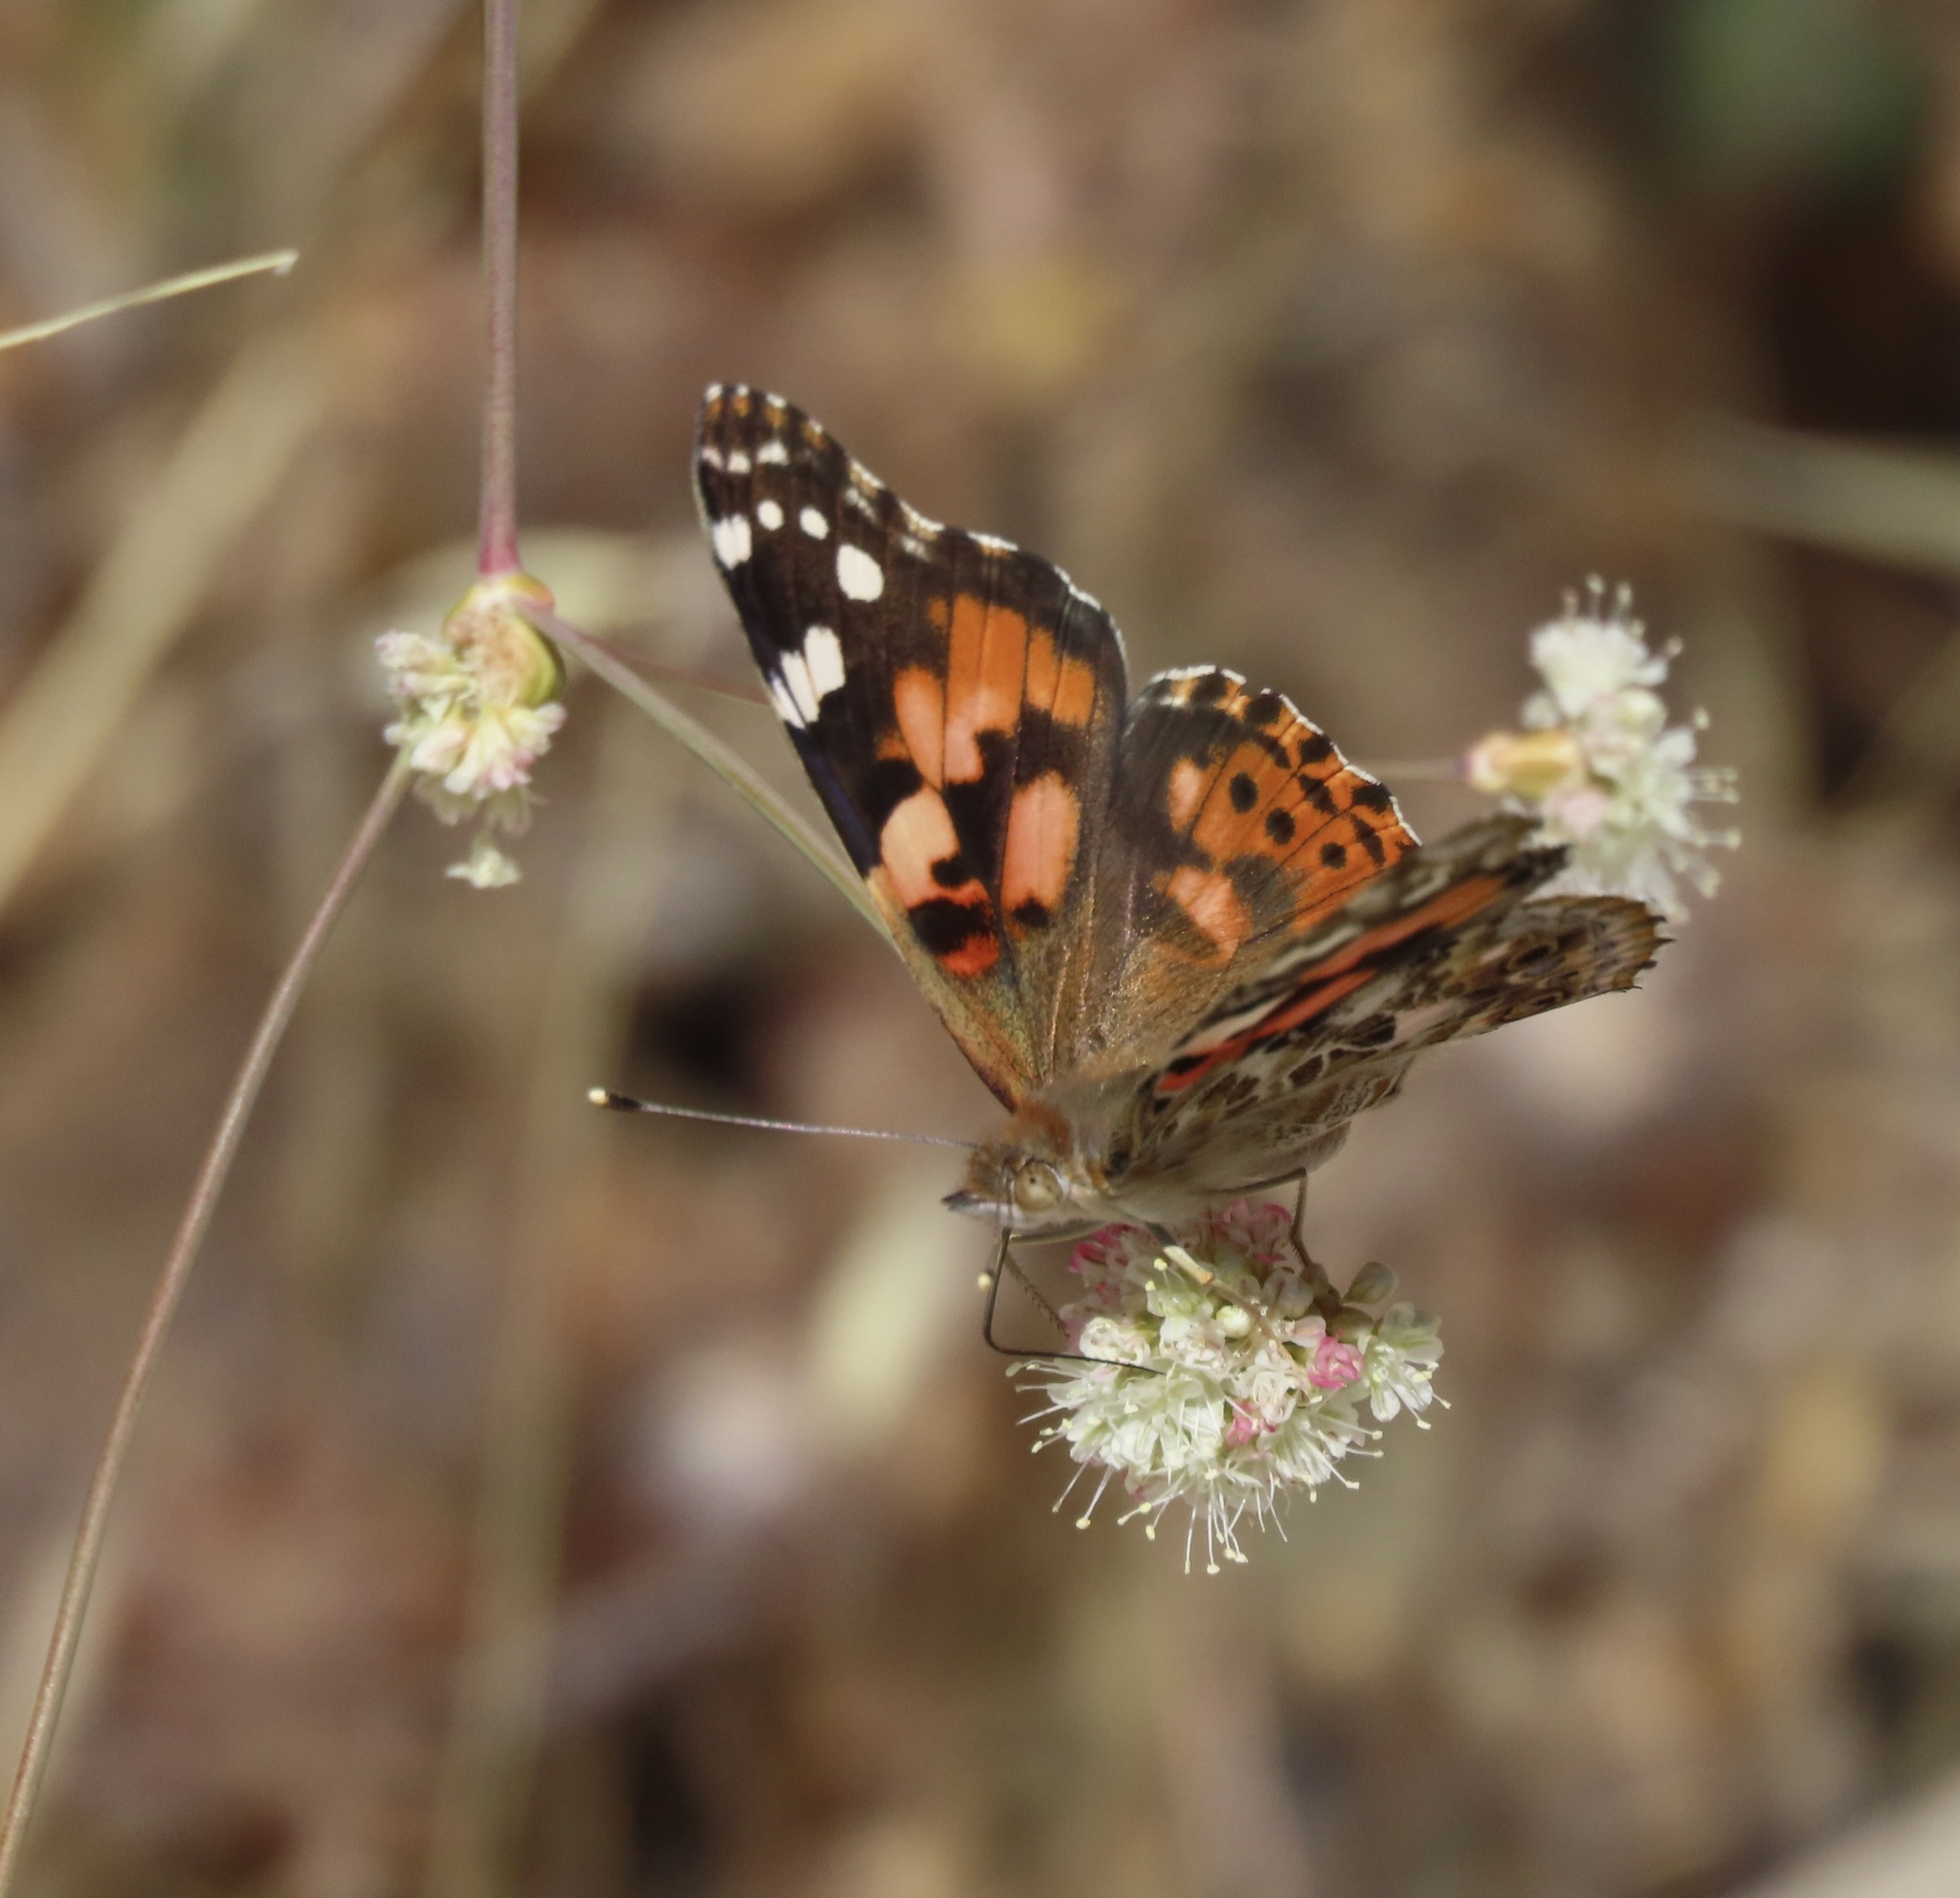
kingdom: Animalia
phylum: Arthropoda
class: Insecta
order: Lepidoptera
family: Nymphalidae
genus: Vanessa
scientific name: Vanessa cardui
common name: Painted lady
